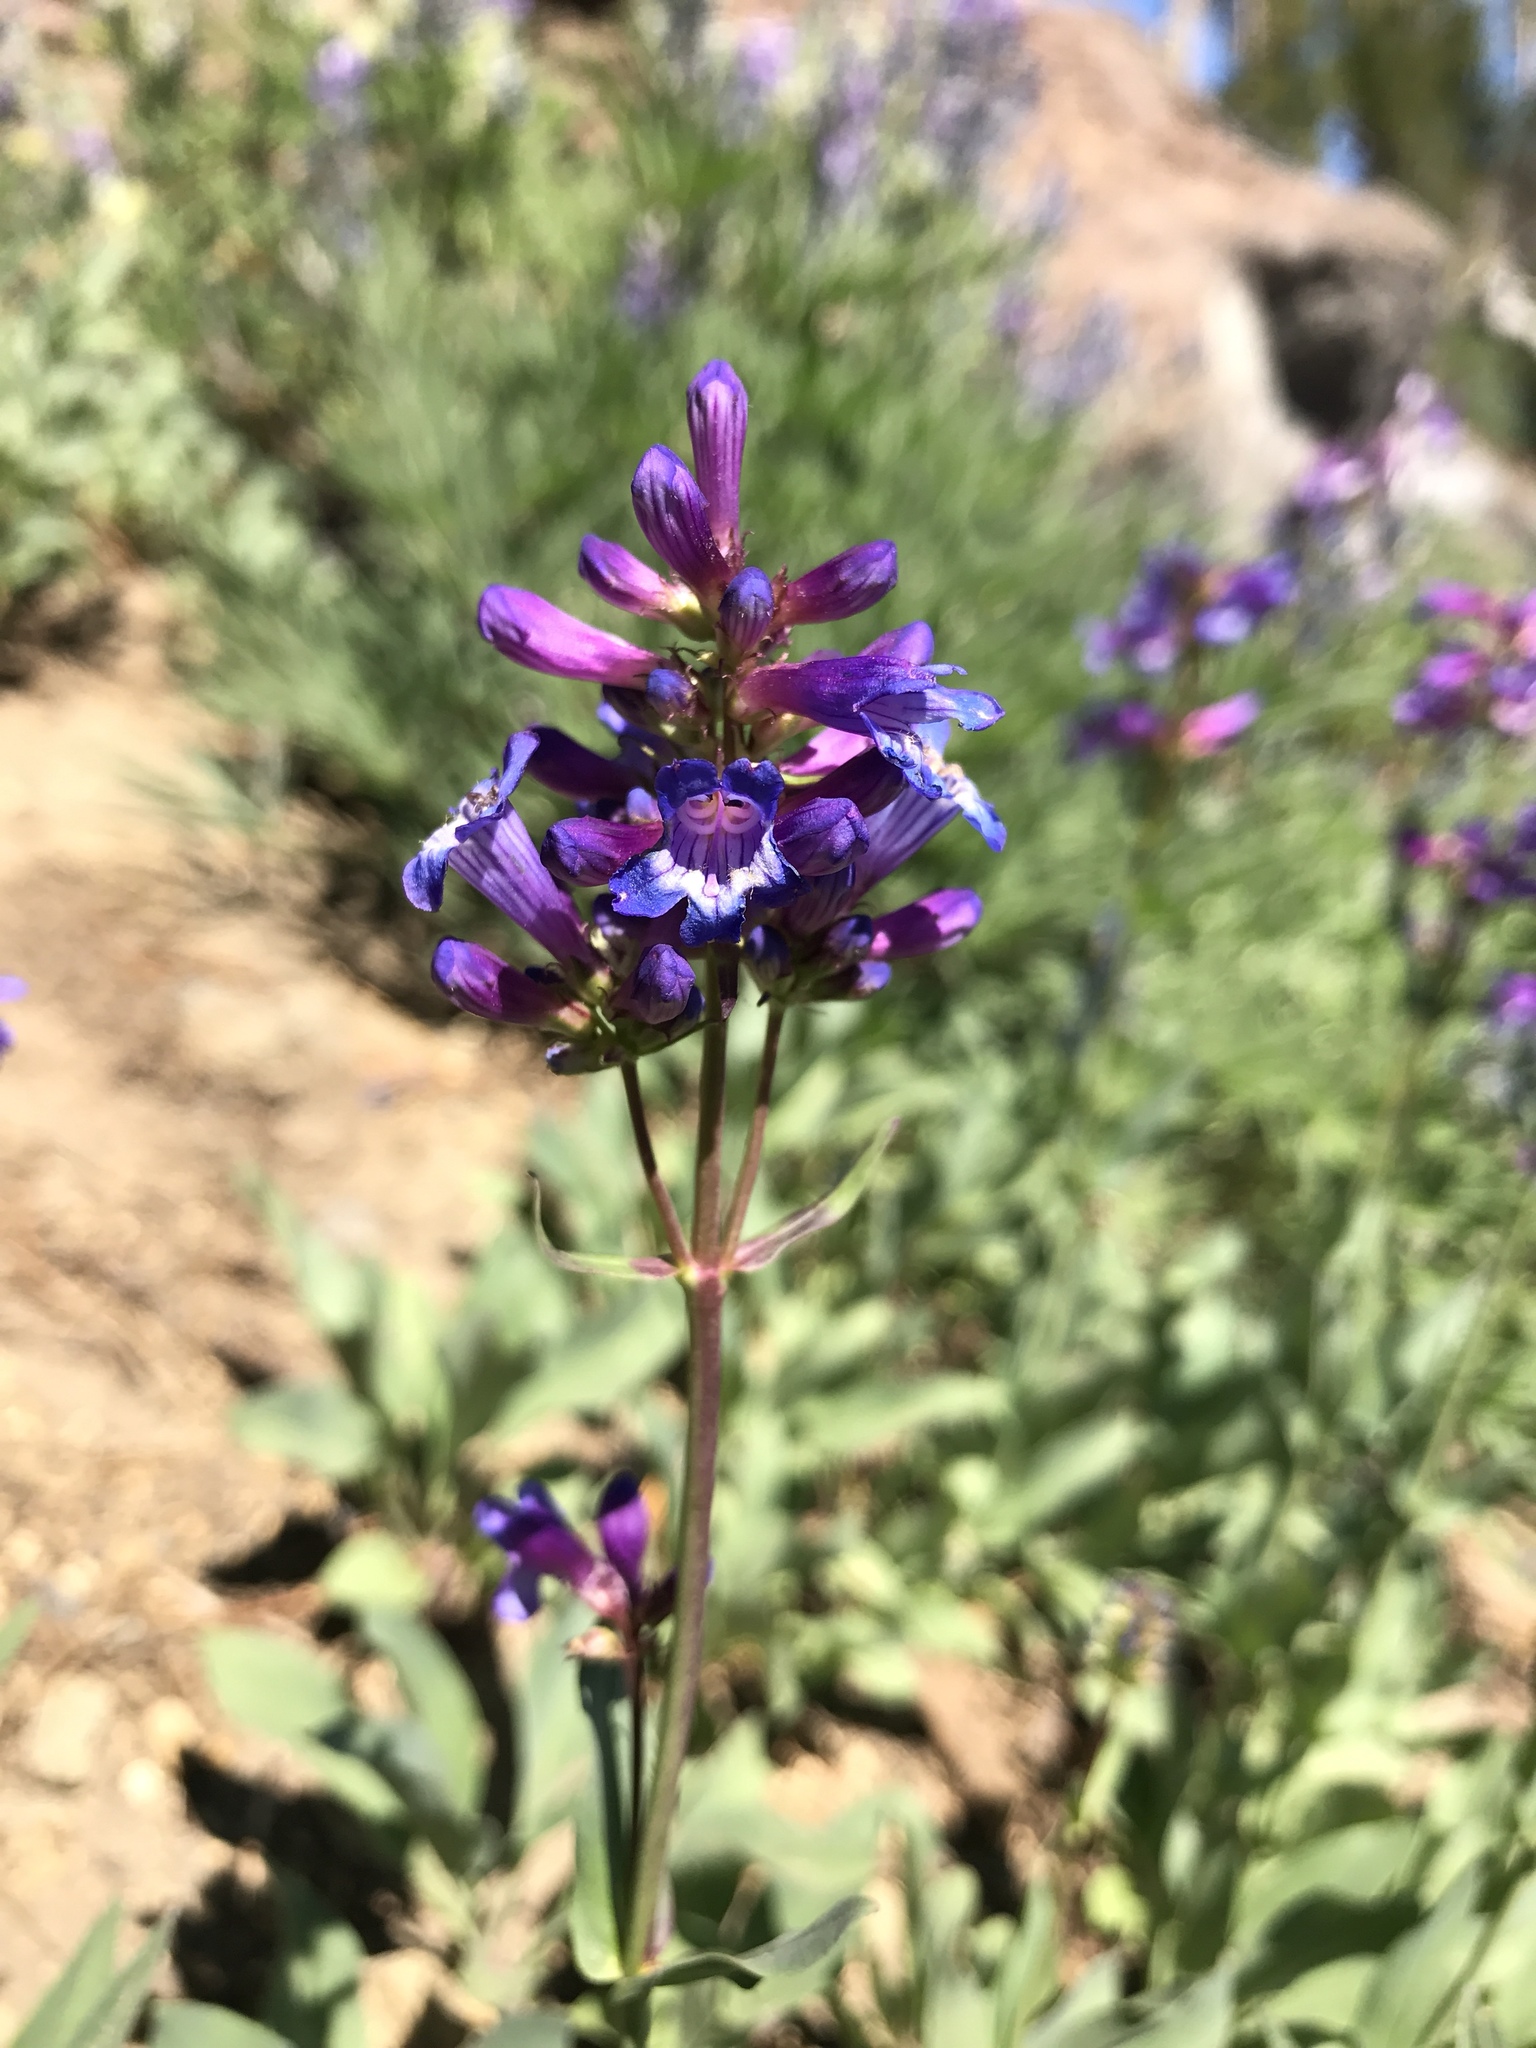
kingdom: Plantae
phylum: Tracheophyta
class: Magnoliopsida
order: Lamiales
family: Plantaginaceae
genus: Penstemon
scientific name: Penstemon euglaucus
